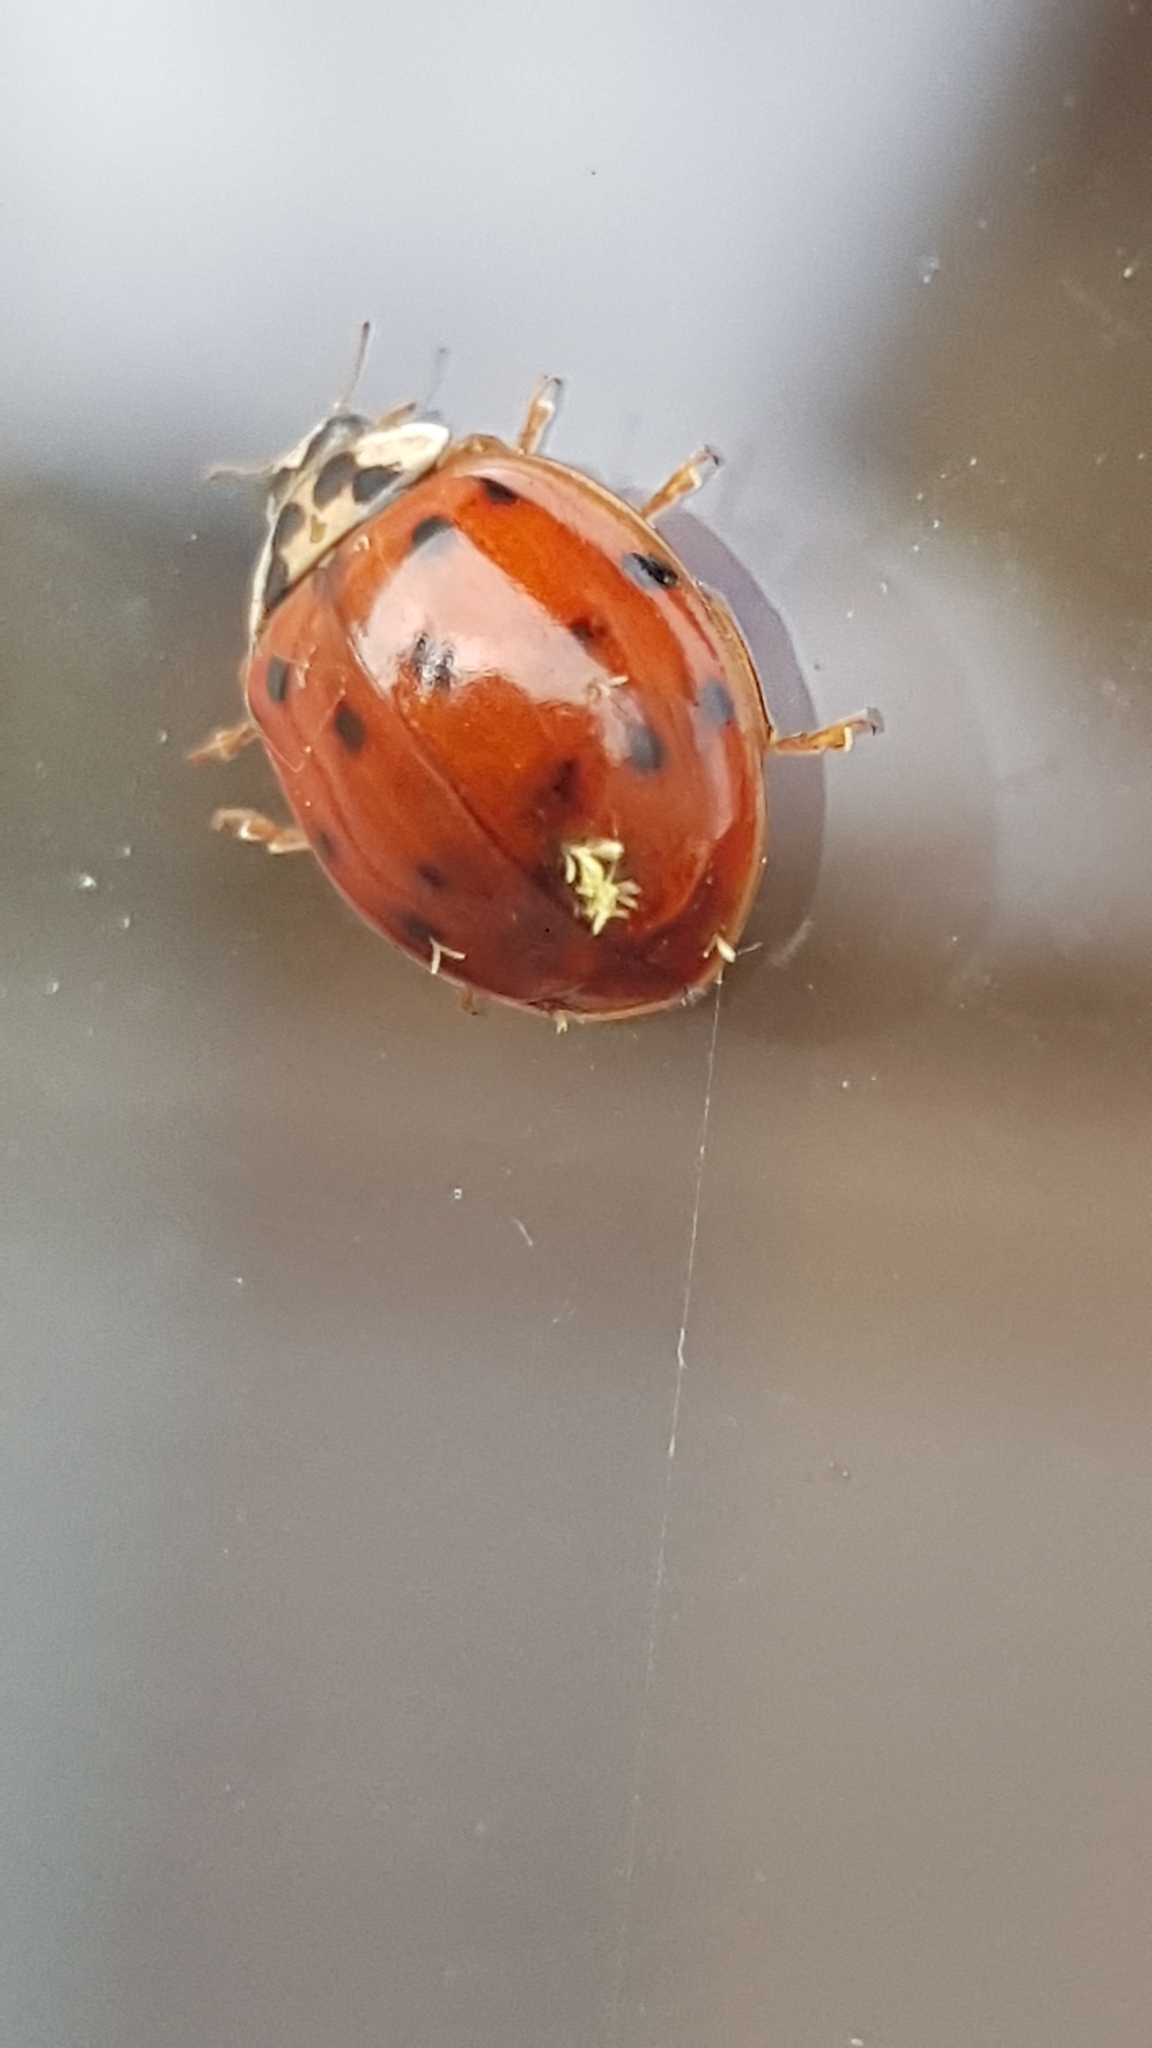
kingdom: Animalia
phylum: Arthropoda
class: Insecta
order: Coleoptera
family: Coccinellidae
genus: Harmonia
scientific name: Harmonia axyridis
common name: Harlequin ladybird
